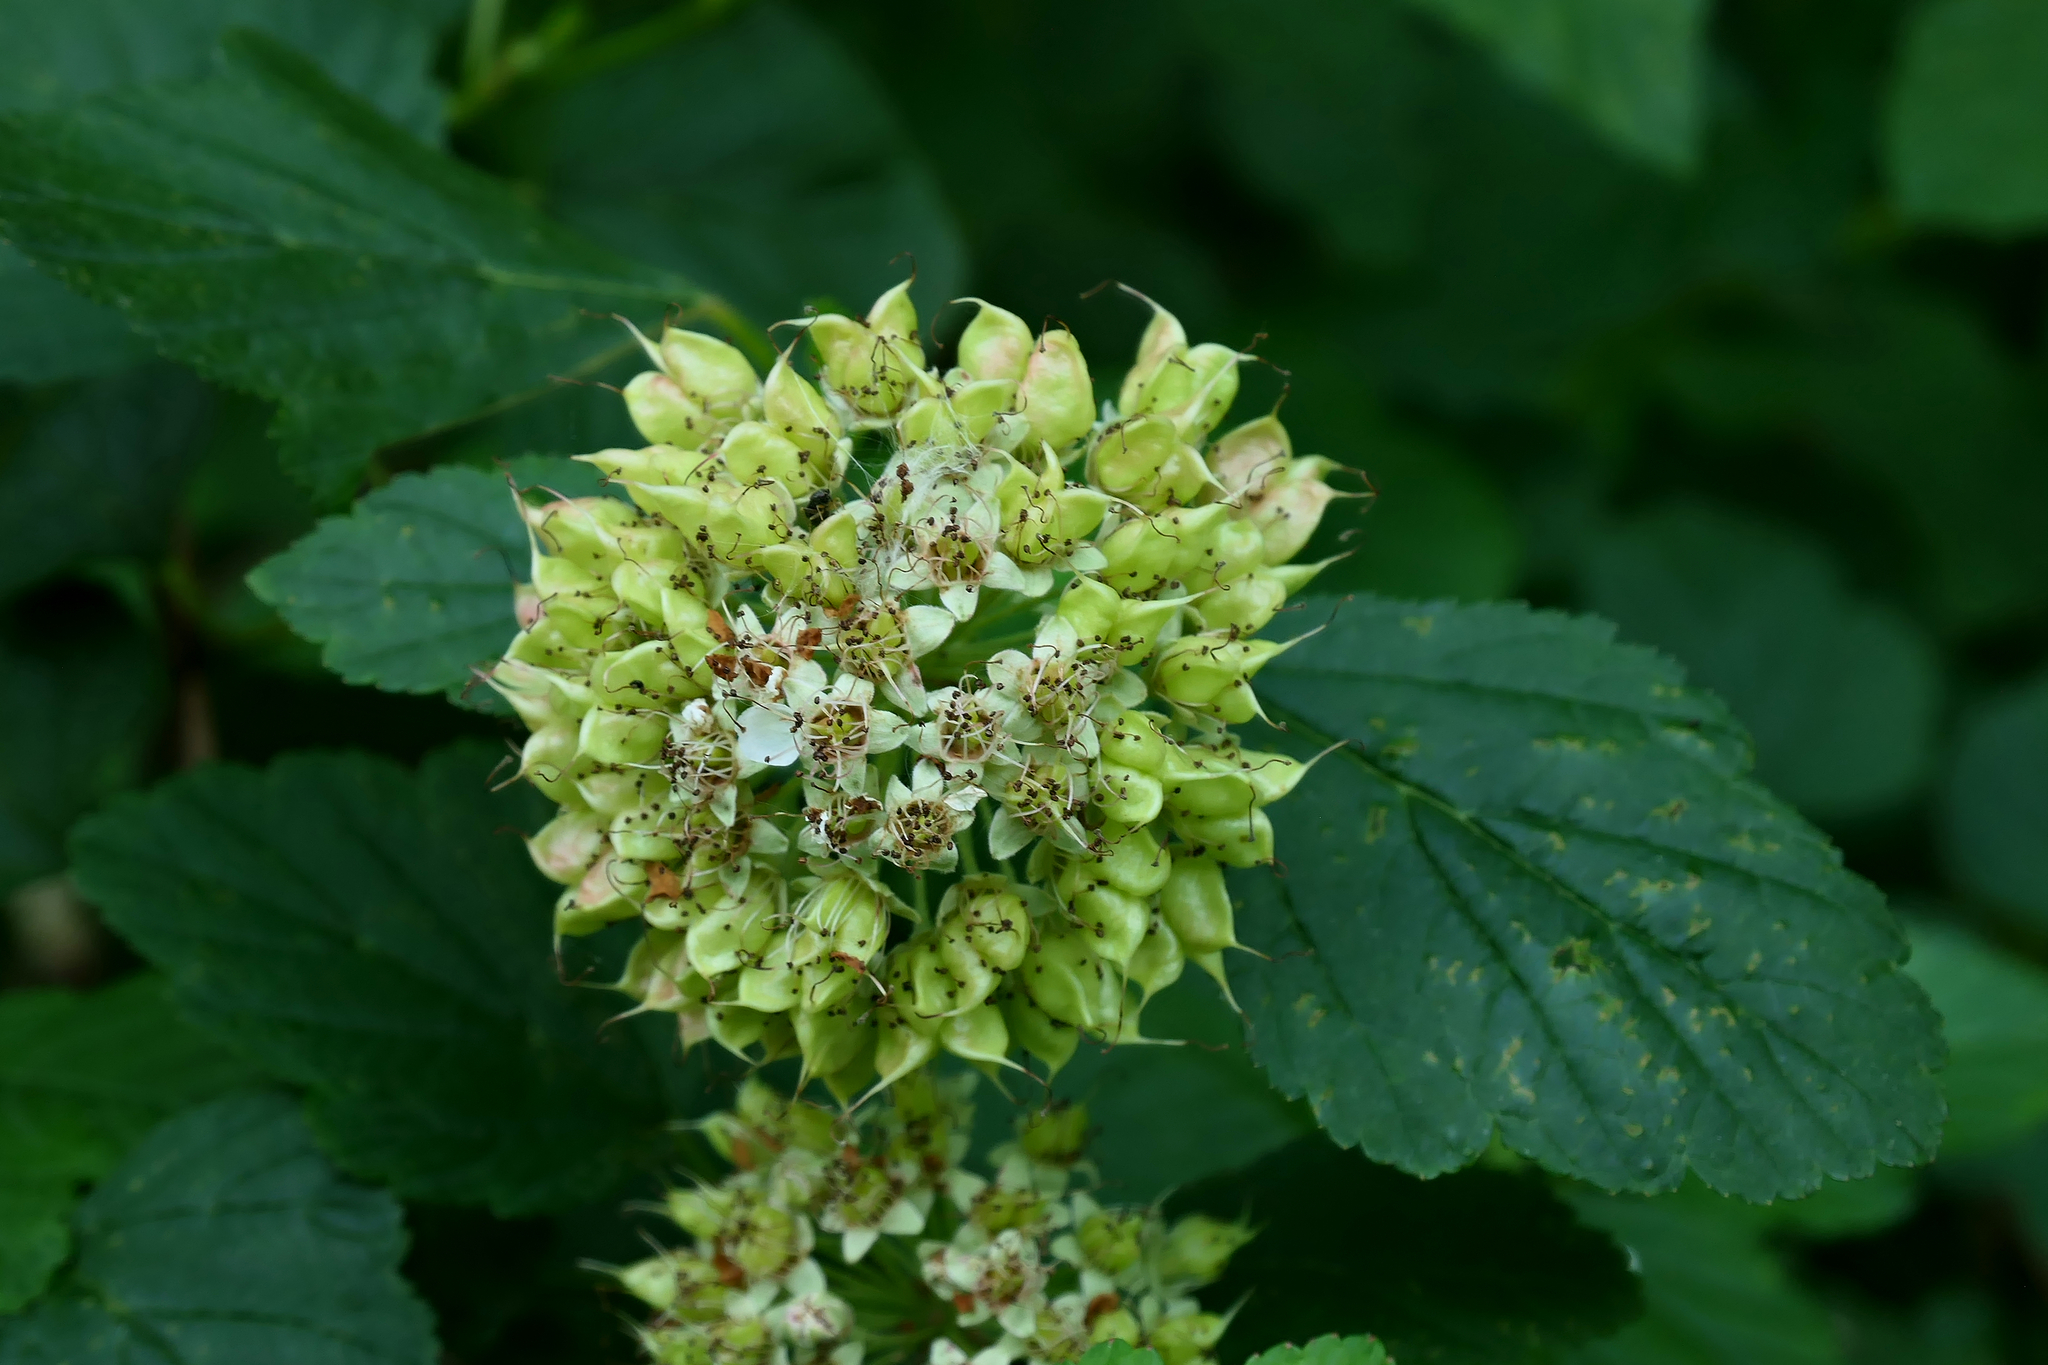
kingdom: Plantae
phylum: Tracheophyta
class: Magnoliopsida
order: Rosales
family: Rosaceae
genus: Physocarpus
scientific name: Physocarpus opulifolius
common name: Ninebark
